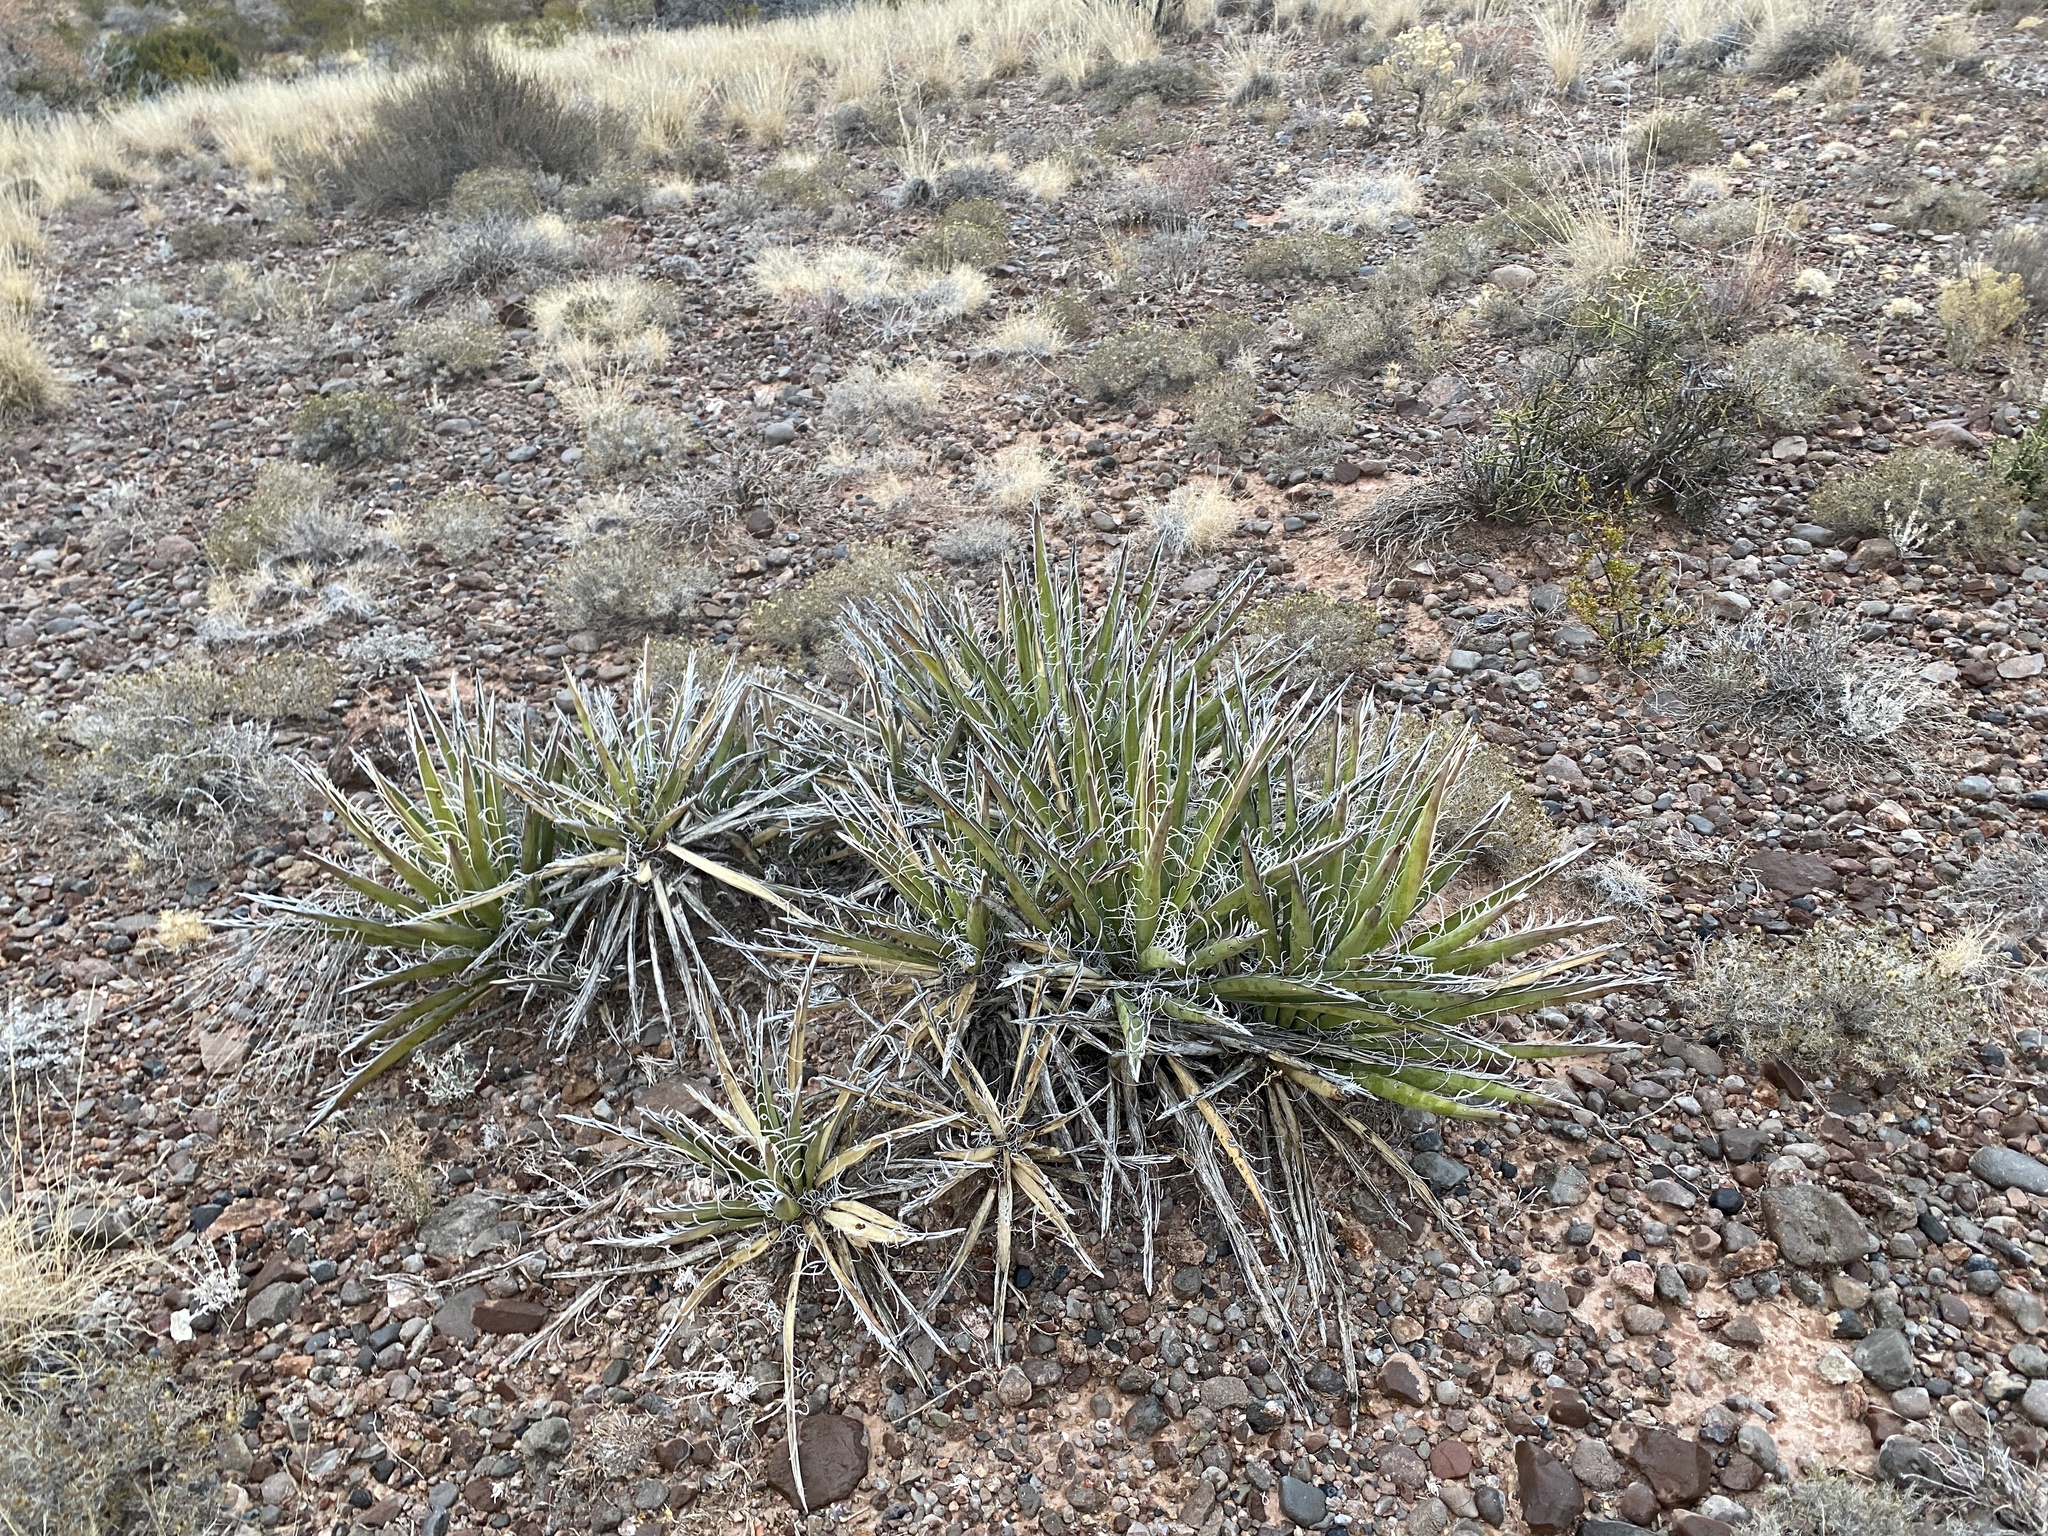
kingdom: Plantae
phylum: Tracheophyta
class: Liliopsida
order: Asparagales
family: Asparagaceae
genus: Yucca
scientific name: Yucca baccata
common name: Banana yucca
